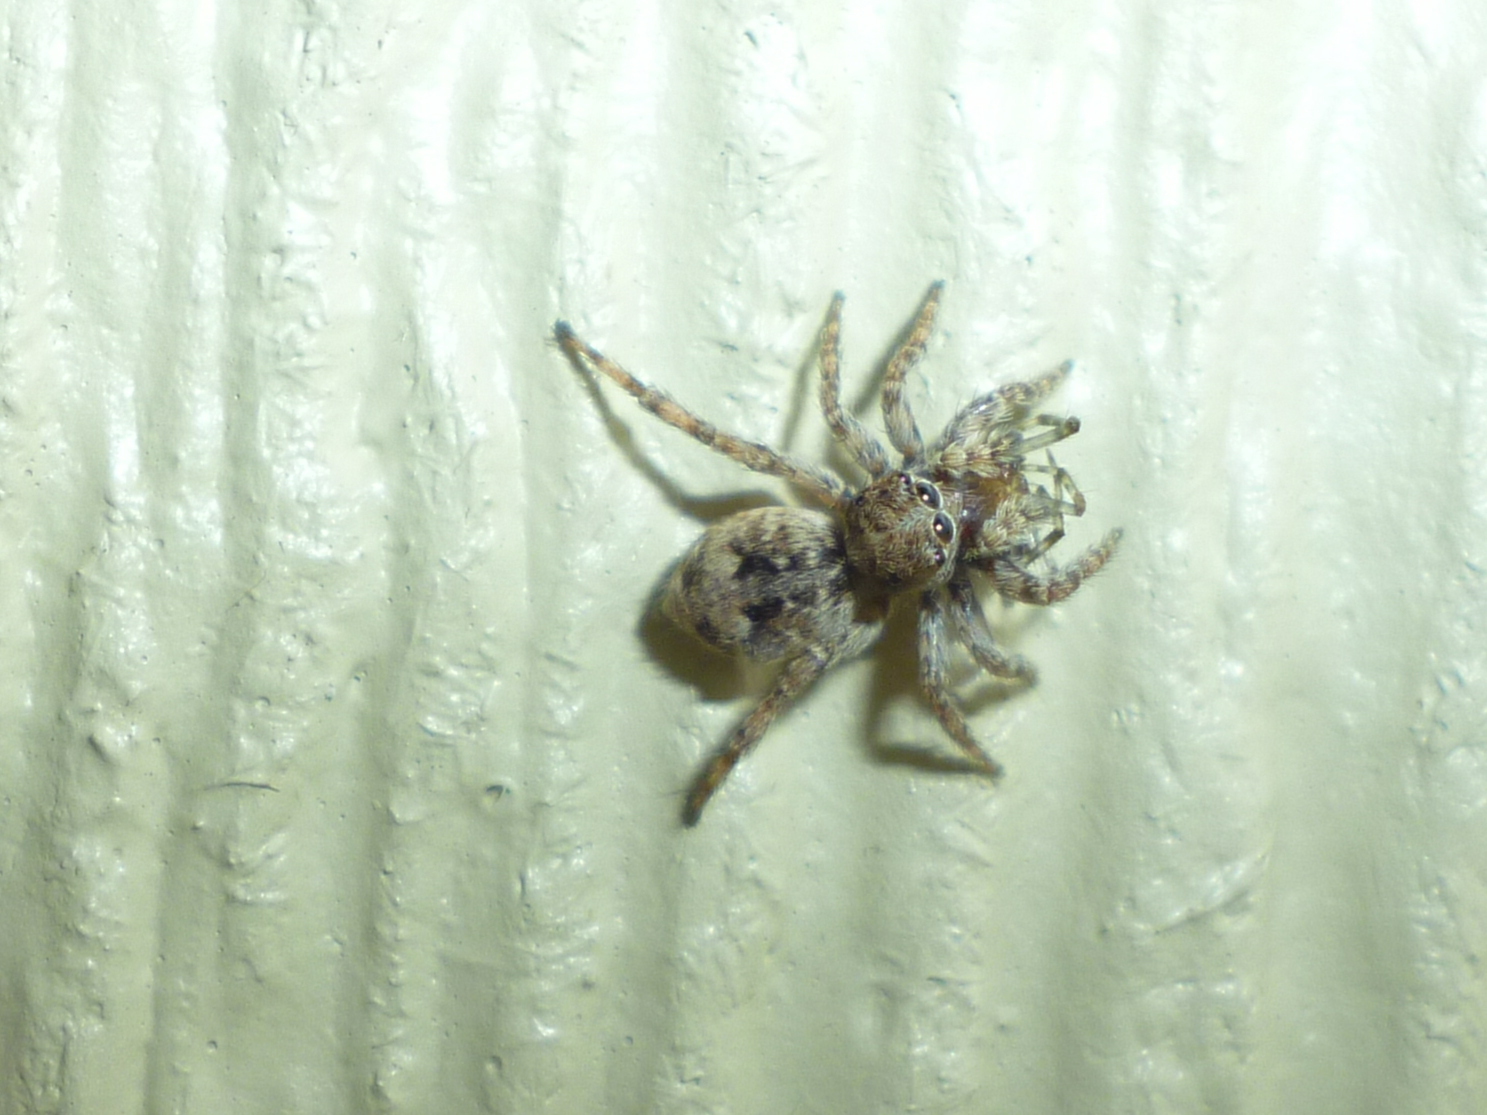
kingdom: Animalia
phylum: Arthropoda
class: Arachnida
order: Araneae
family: Salticidae
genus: Attulus
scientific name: Attulus fasciger
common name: Asiatic wall jumping spider
